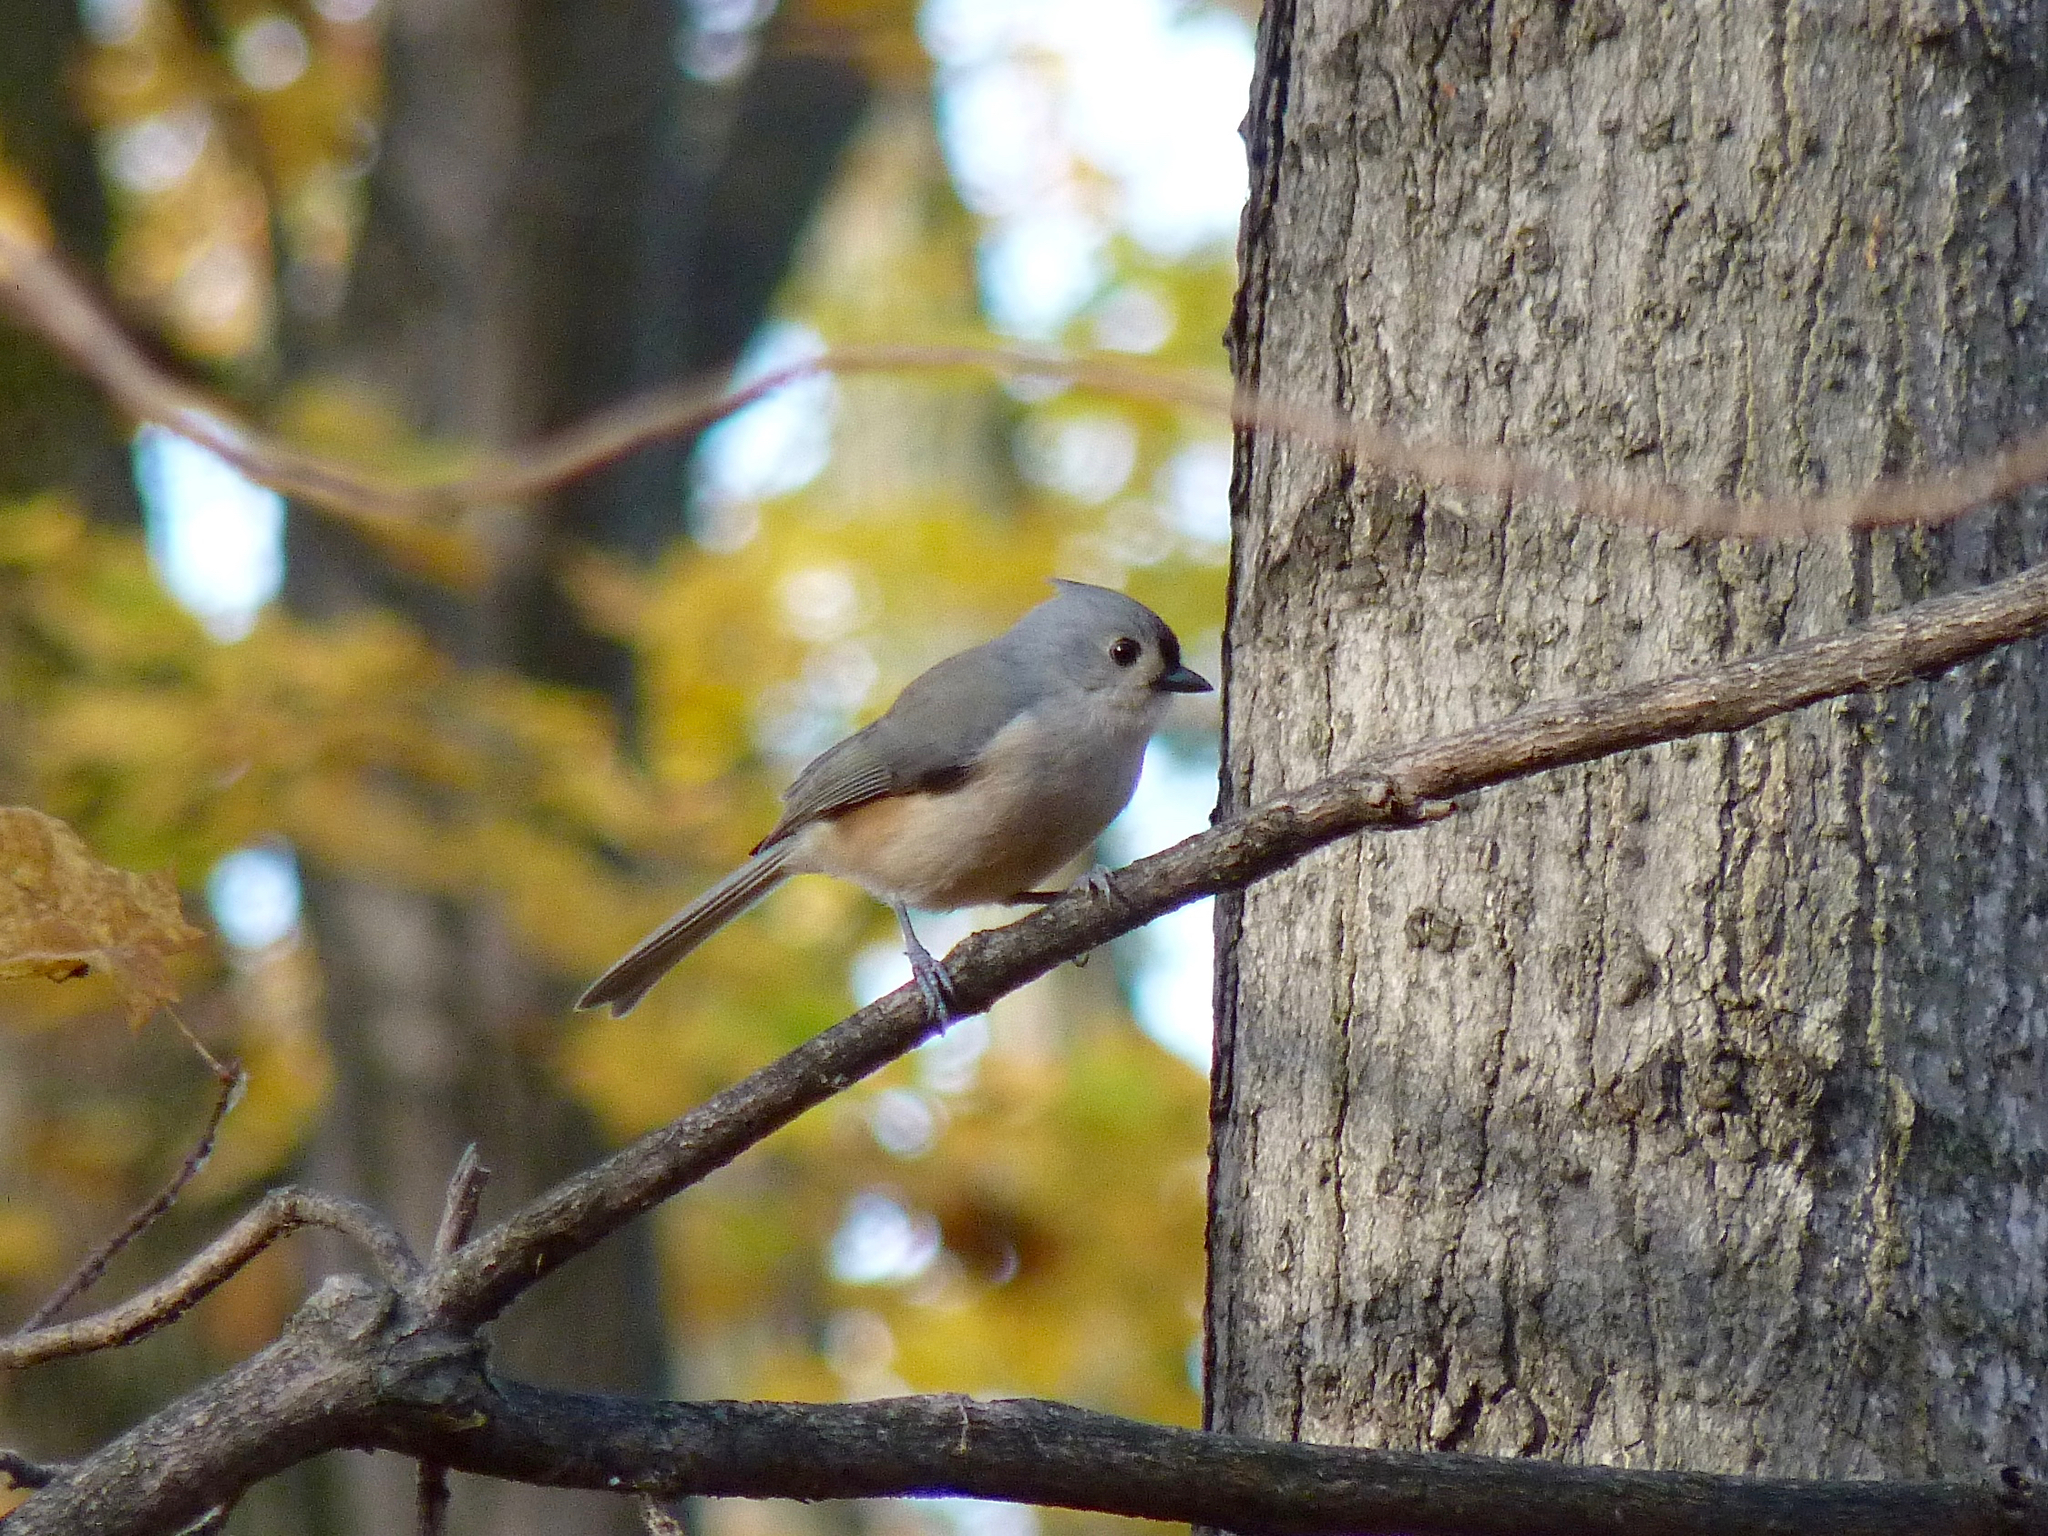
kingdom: Animalia
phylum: Chordata
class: Aves
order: Passeriformes
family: Paridae
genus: Baeolophus
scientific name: Baeolophus bicolor
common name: Tufted titmouse
